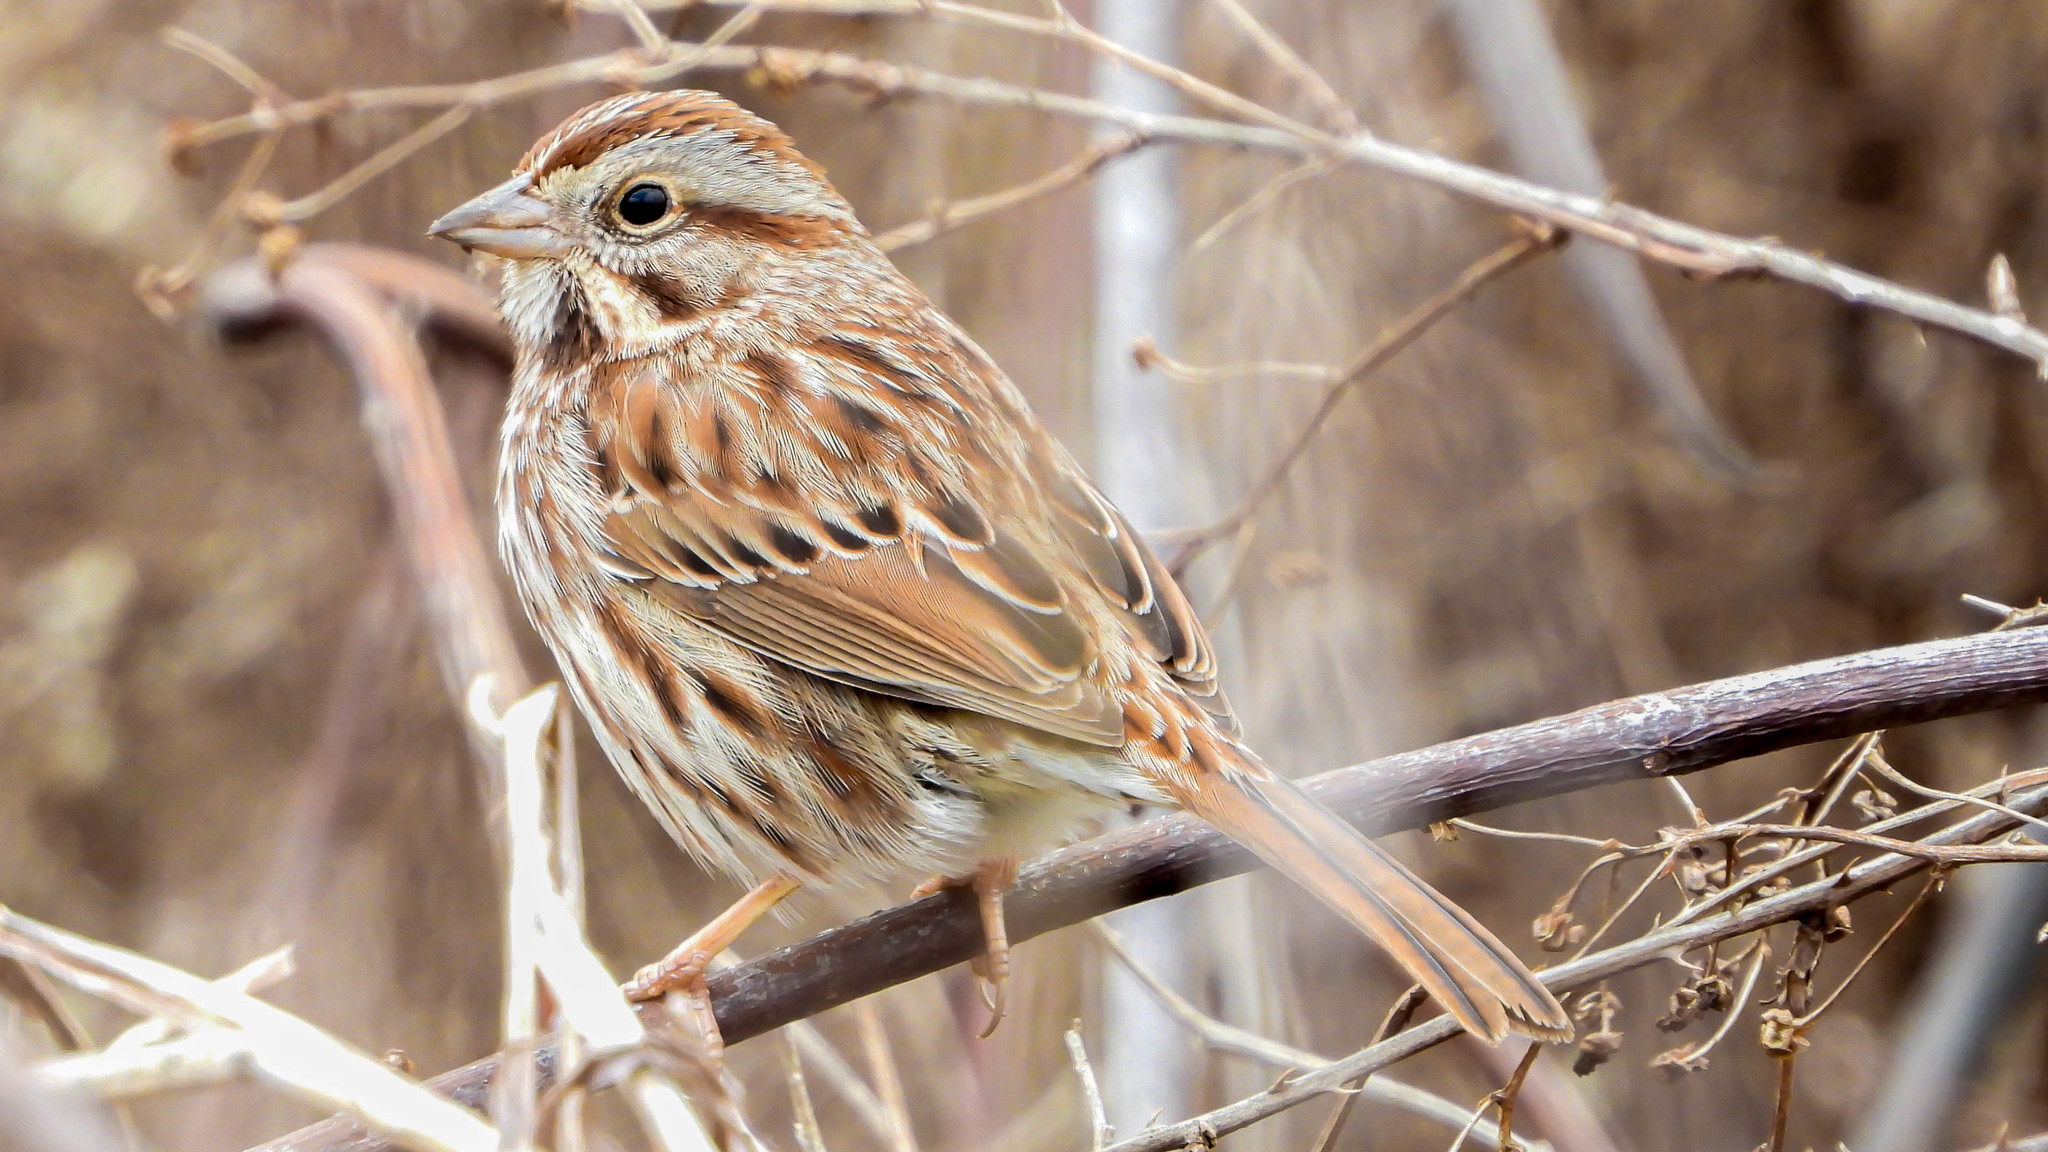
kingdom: Animalia
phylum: Chordata
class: Aves
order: Passeriformes
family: Passerellidae
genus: Melospiza
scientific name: Melospiza melodia
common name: Song sparrow
